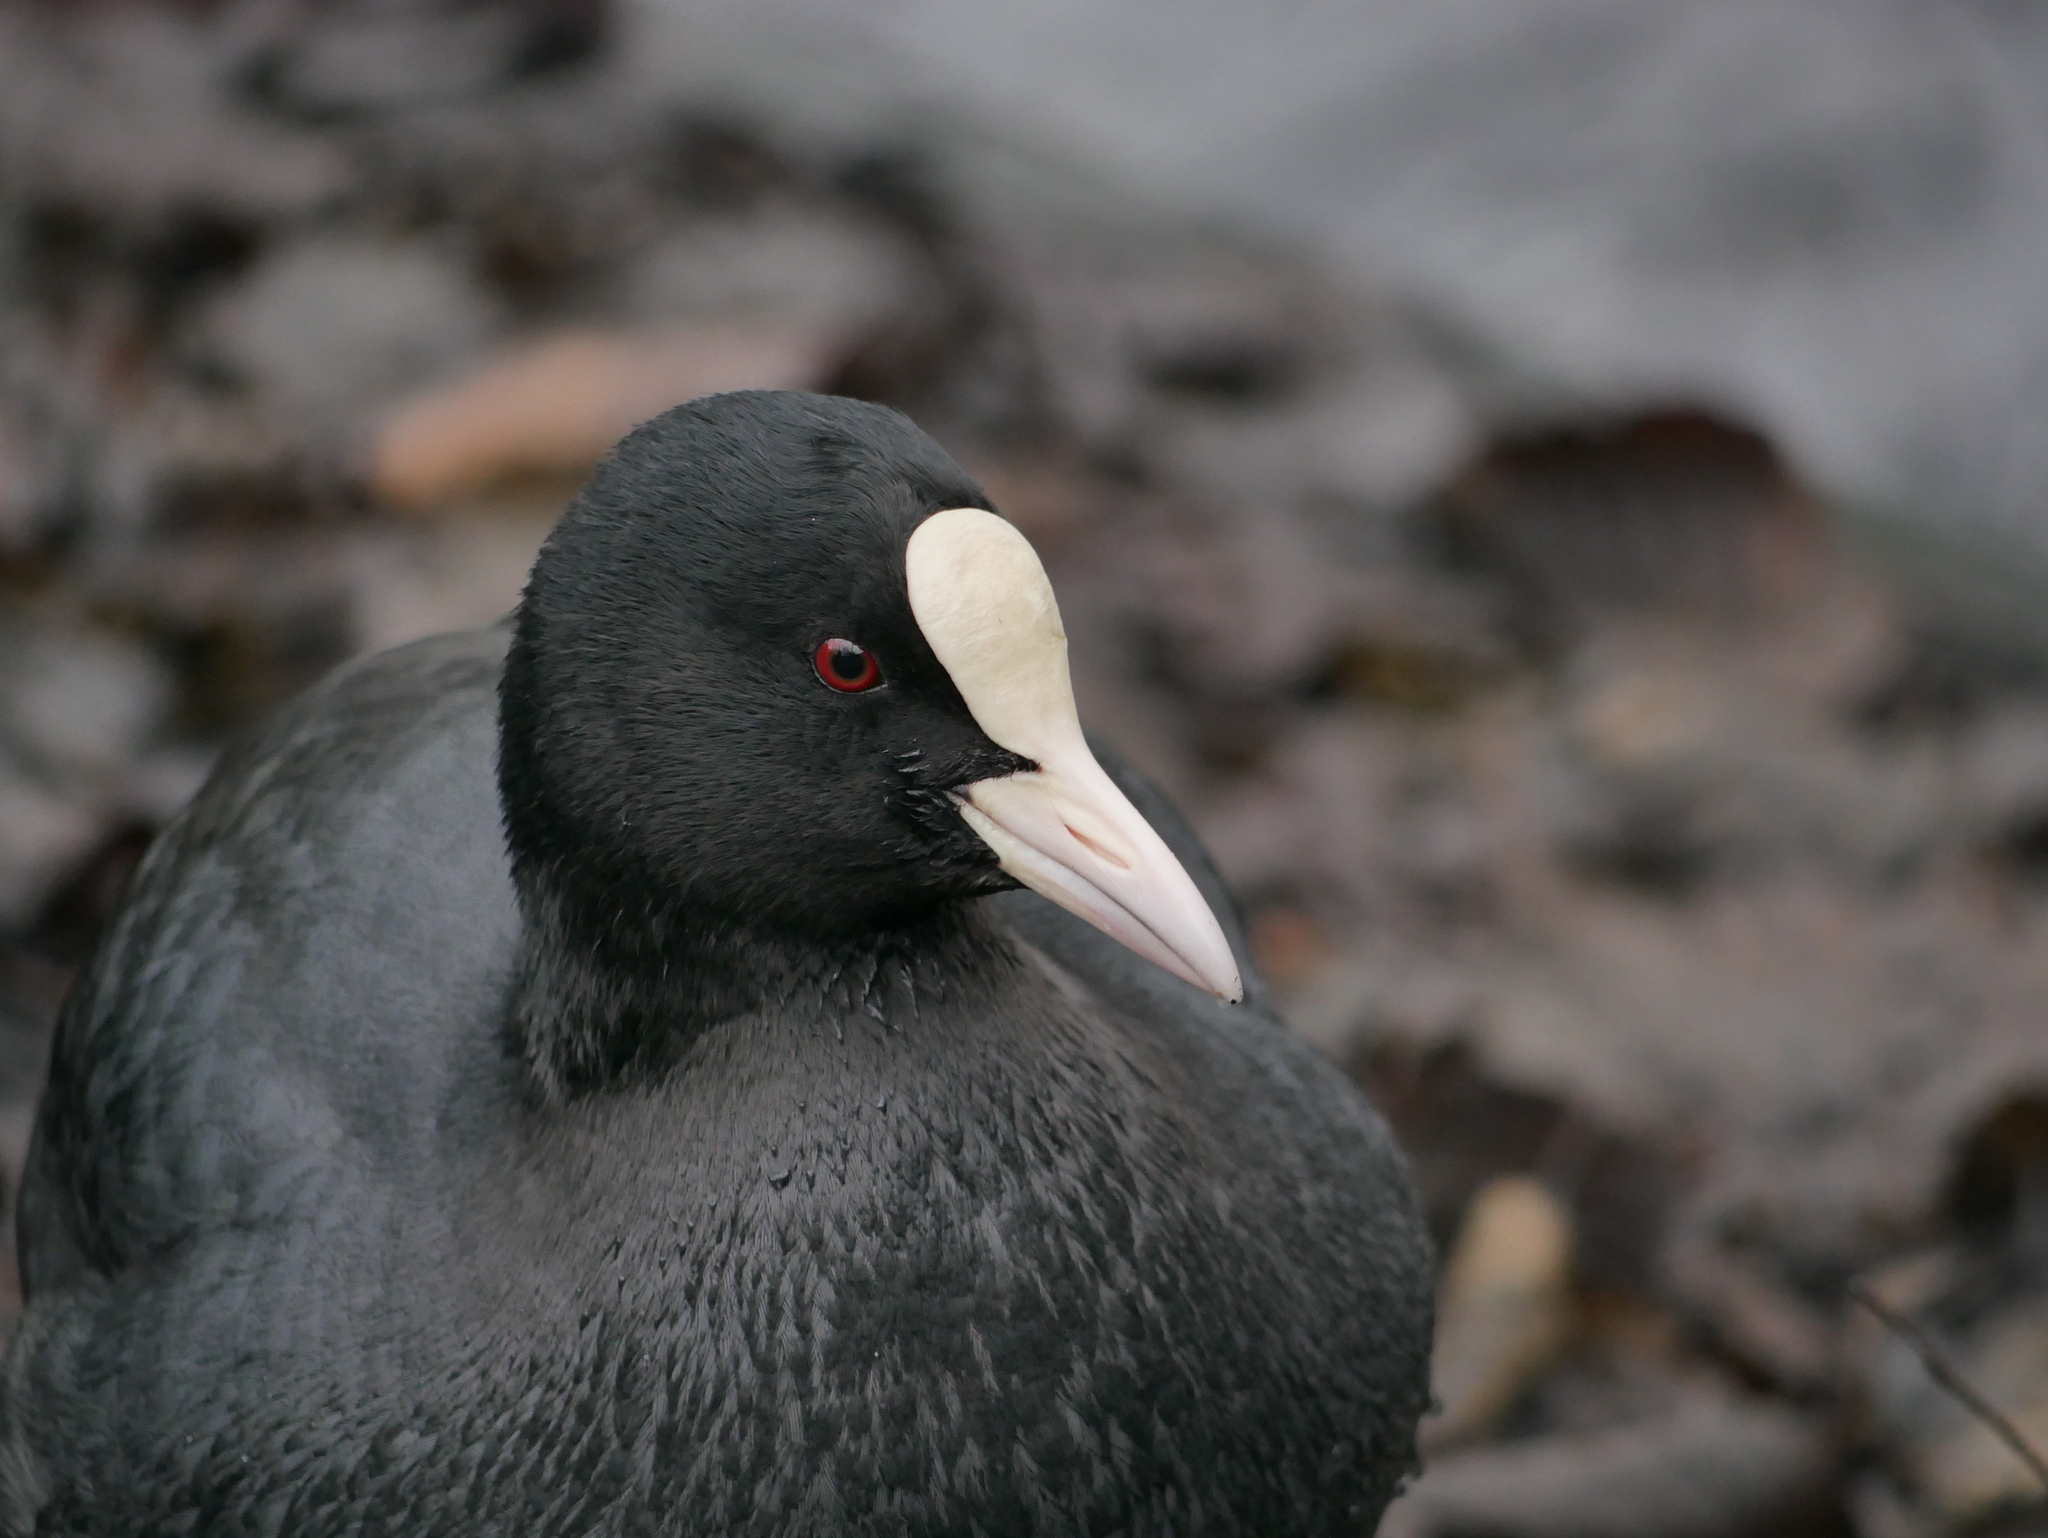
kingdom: Animalia
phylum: Chordata
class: Aves
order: Gruiformes
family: Rallidae
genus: Fulica
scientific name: Fulica atra
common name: Eurasian coot
